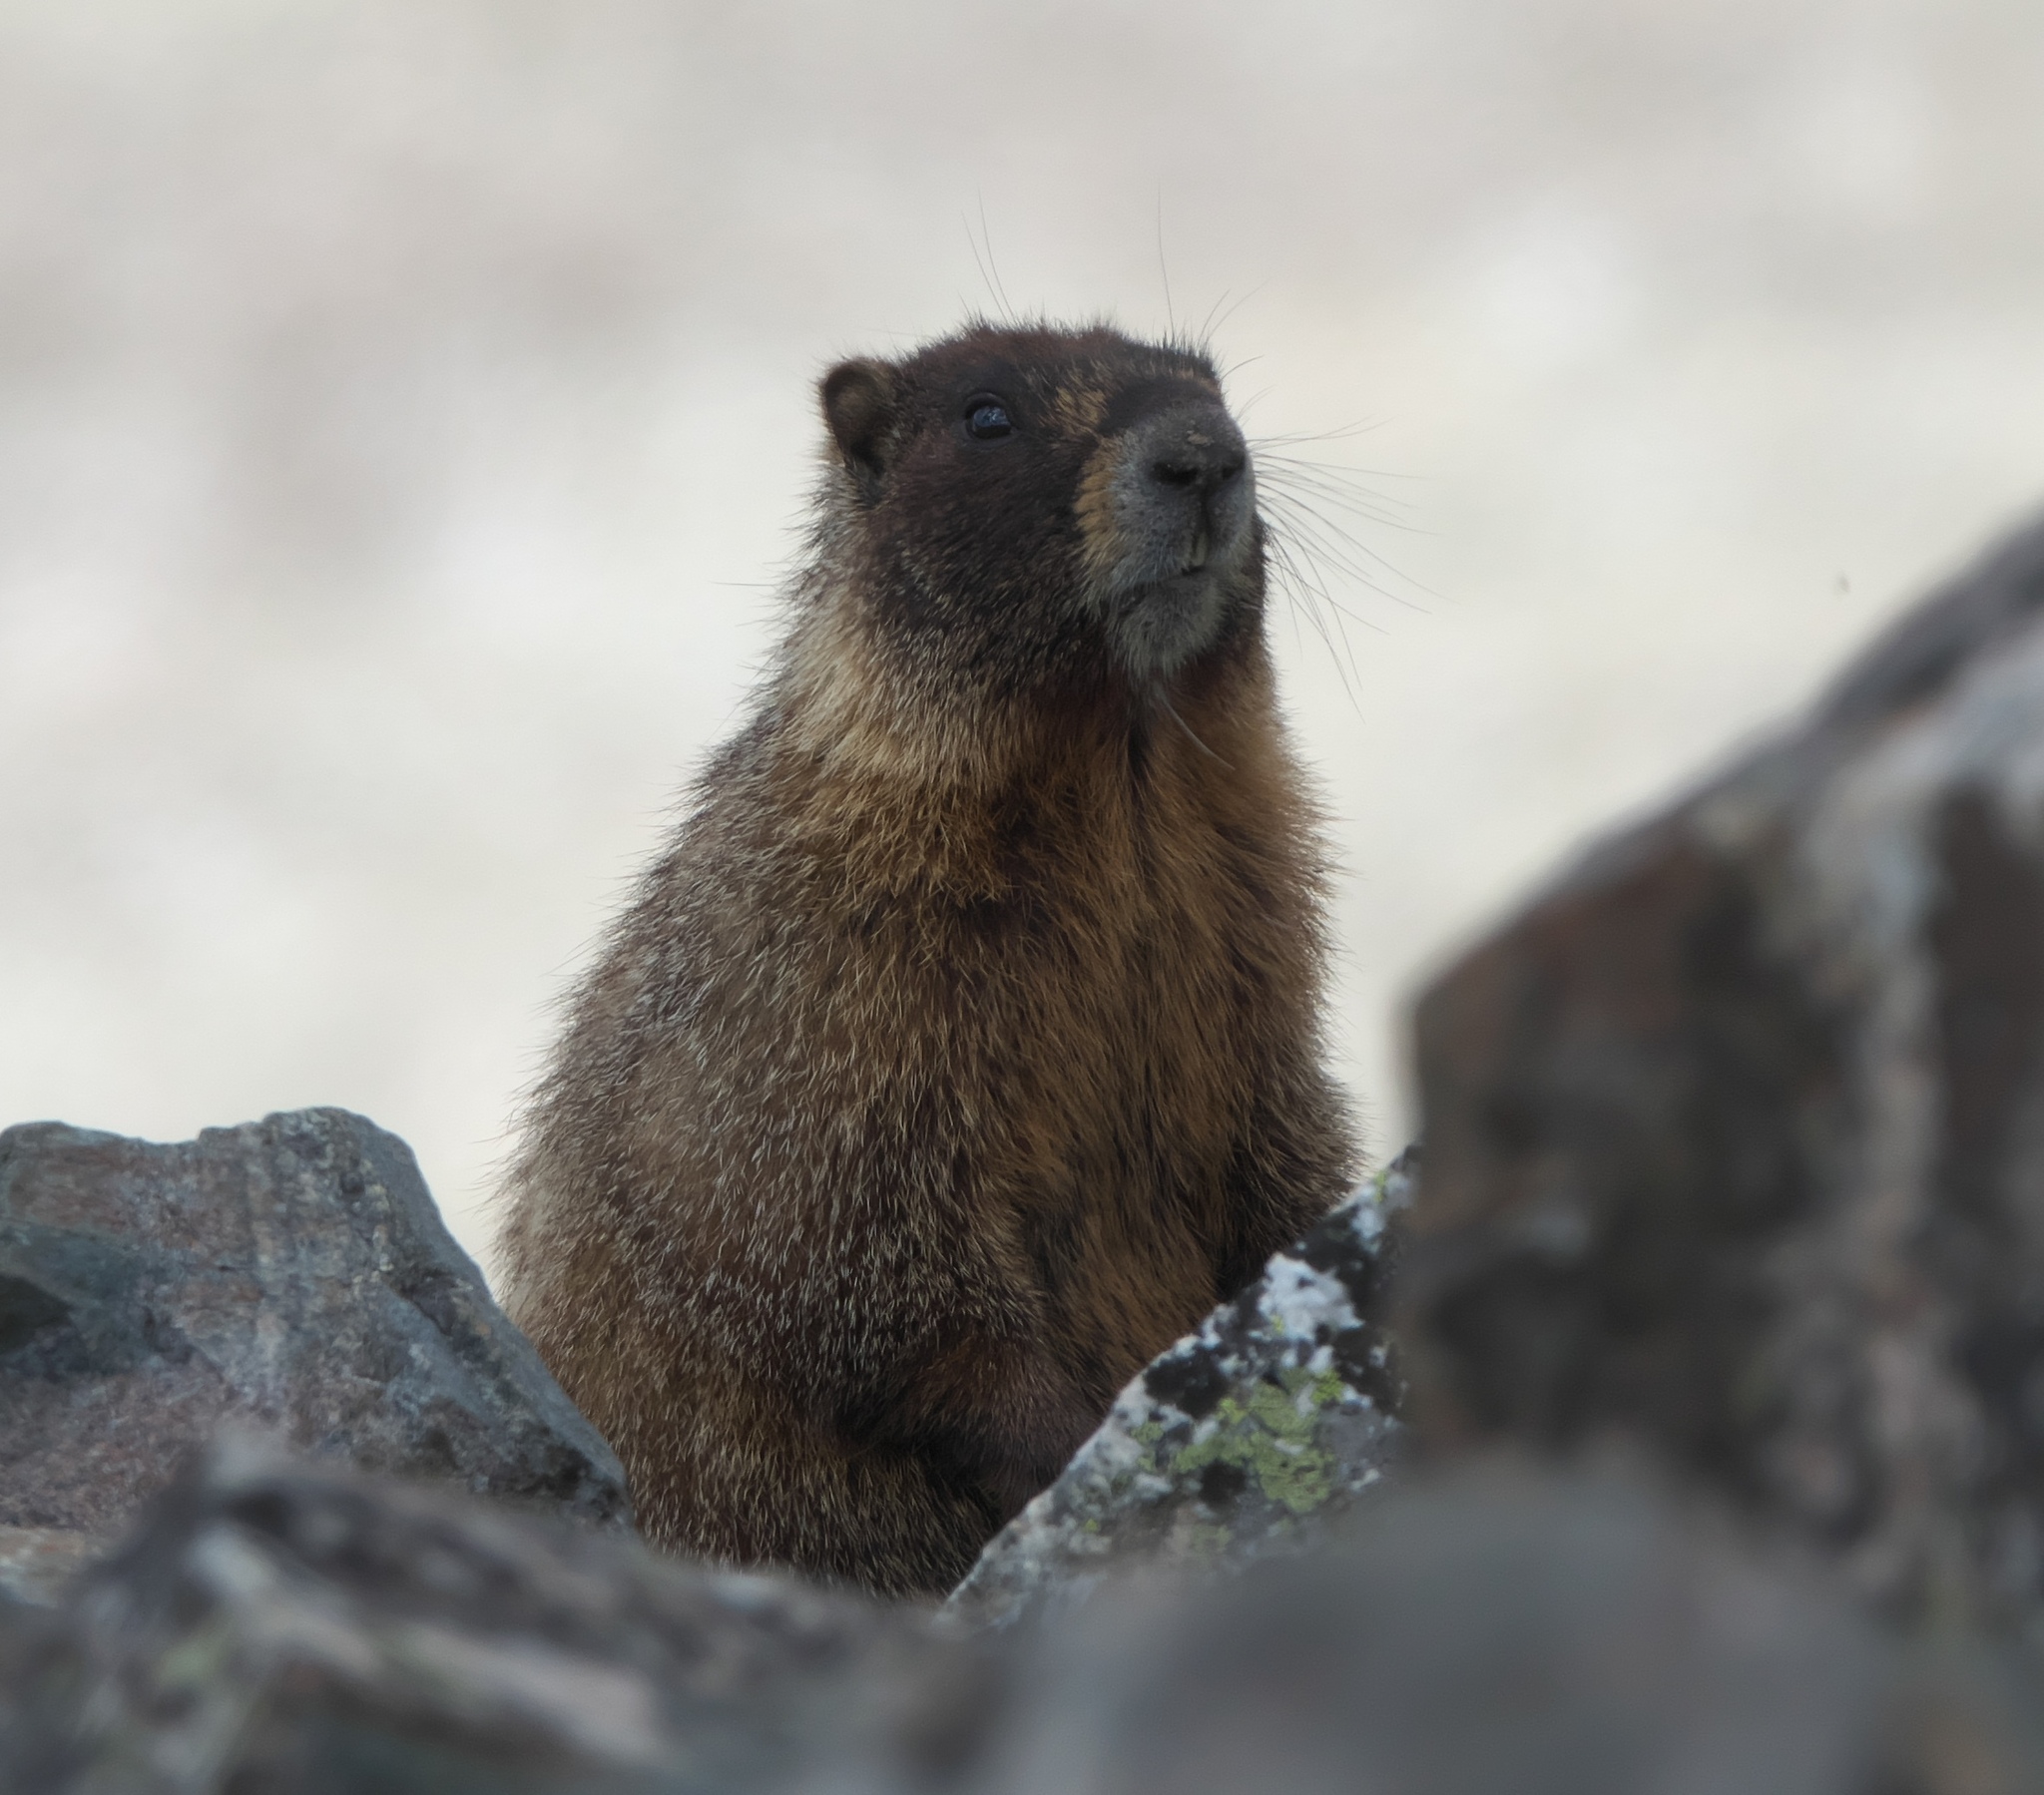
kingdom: Animalia
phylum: Chordata
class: Mammalia
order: Rodentia
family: Sciuridae
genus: Marmota
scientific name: Marmota flaviventris
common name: Yellow-bellied marmot
